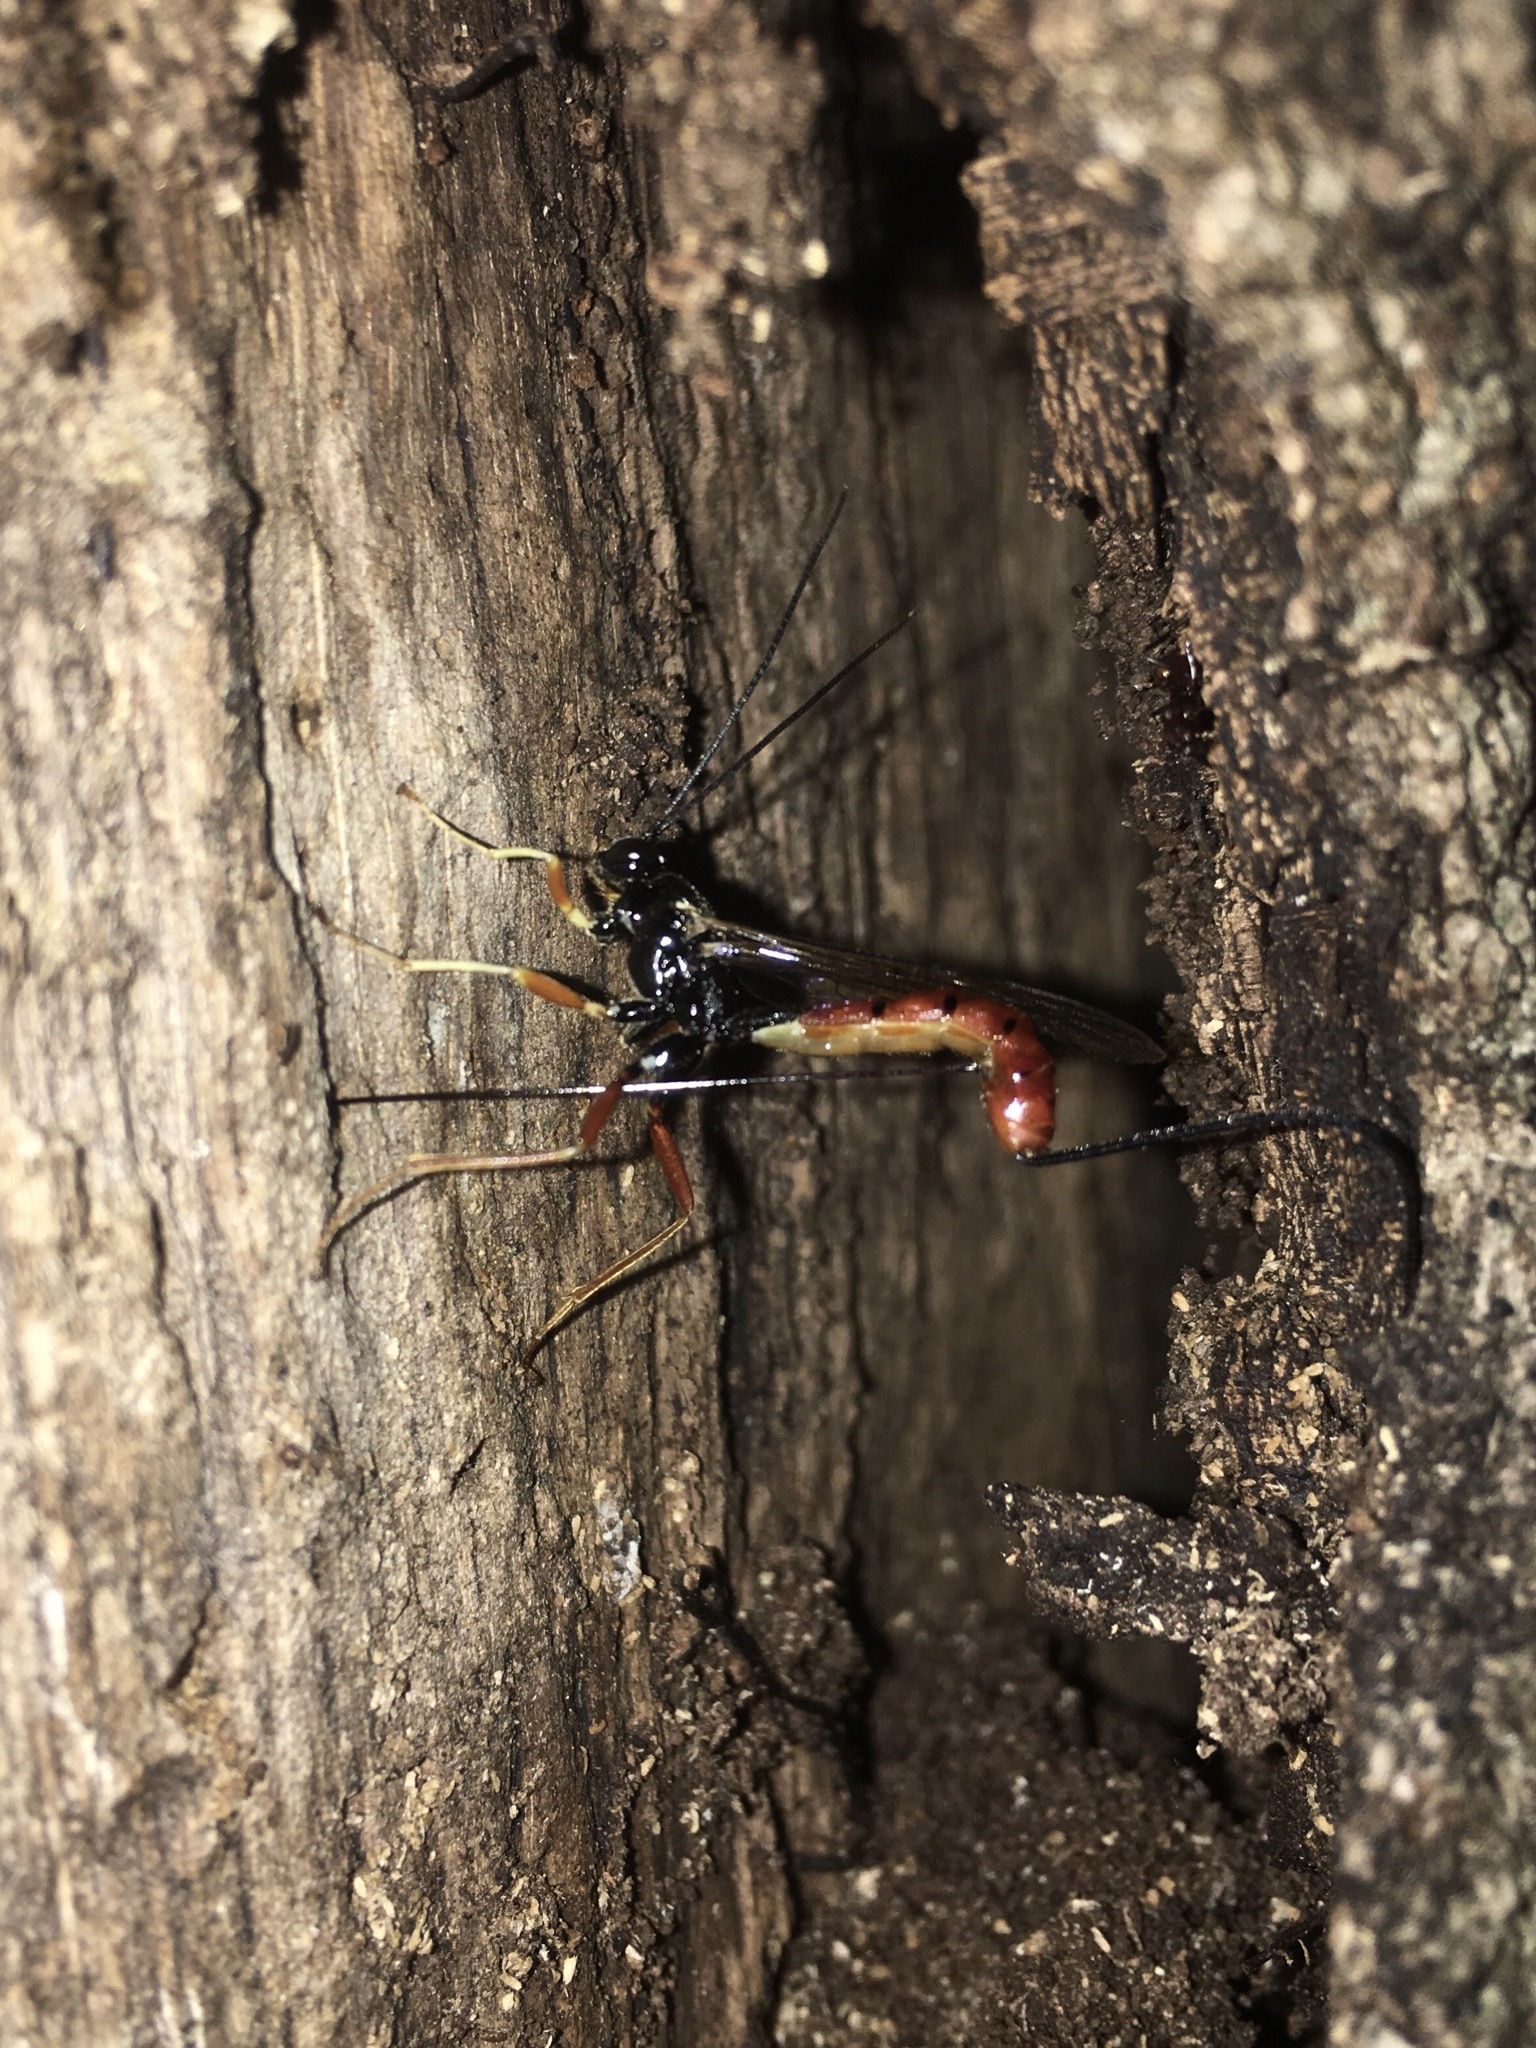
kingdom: Animalia
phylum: Arthropoda
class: Insecta
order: Hymenoptera
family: Ichneumonidae
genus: Dolichomitus
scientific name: Dolichomitus irritator
